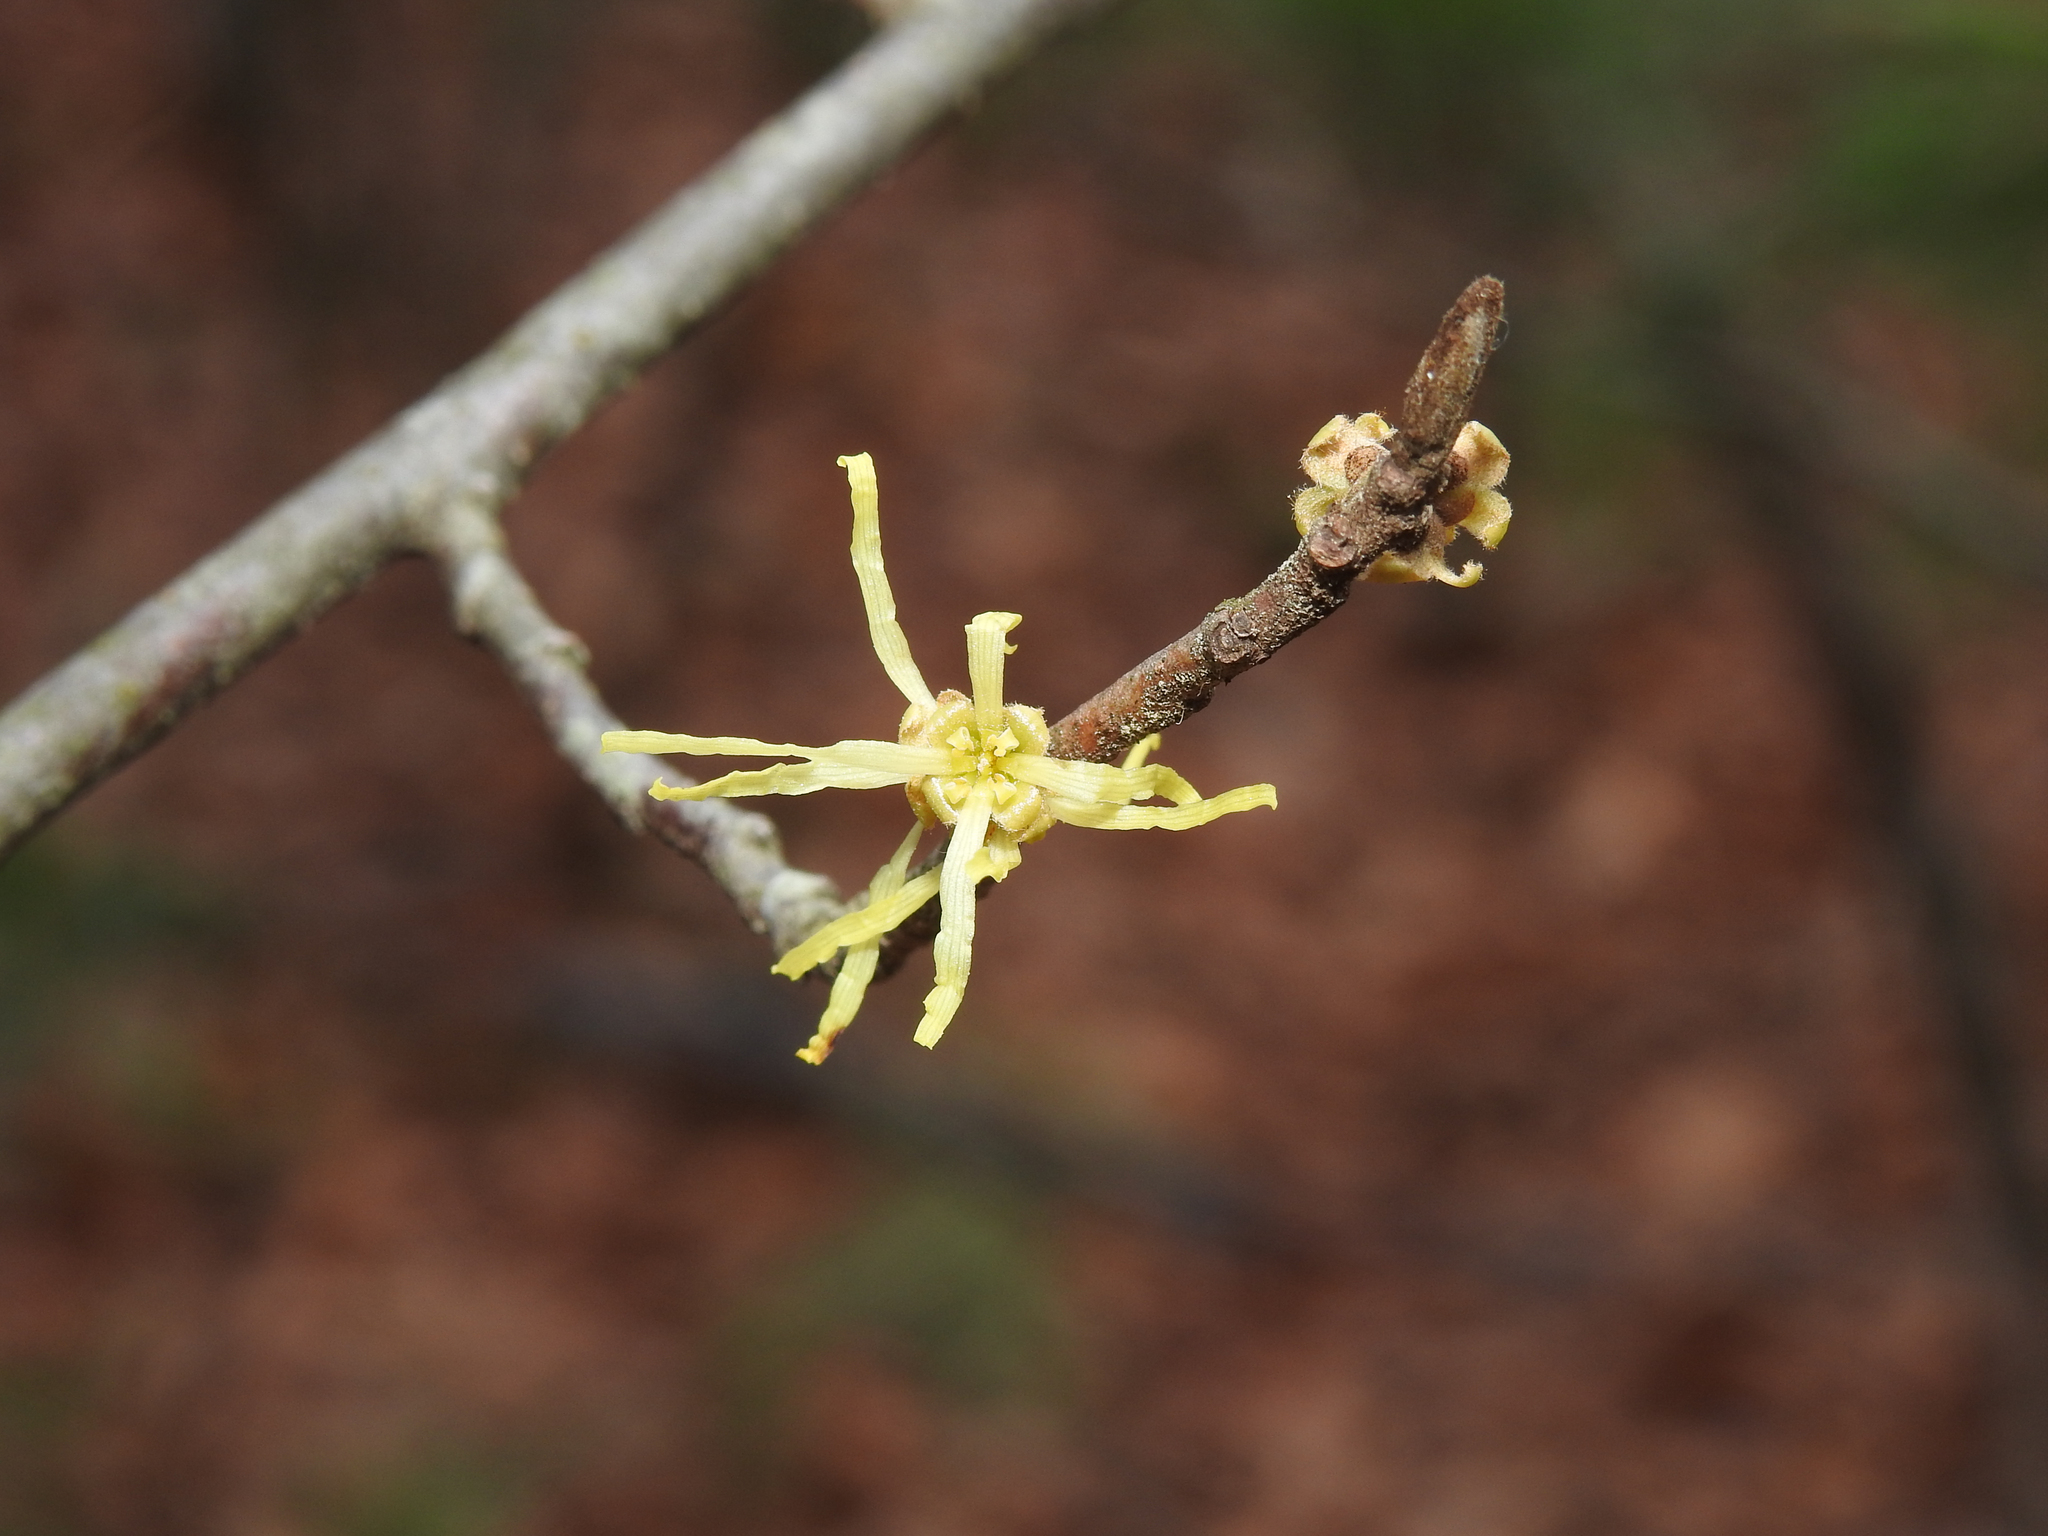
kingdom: Plantae
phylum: Tracheophyta
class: Magnoliopsida
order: Saxifragales
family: Hamamelidaceae
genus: Hamamelis
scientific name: Hamamelis virginiana
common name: Witch-hazel
